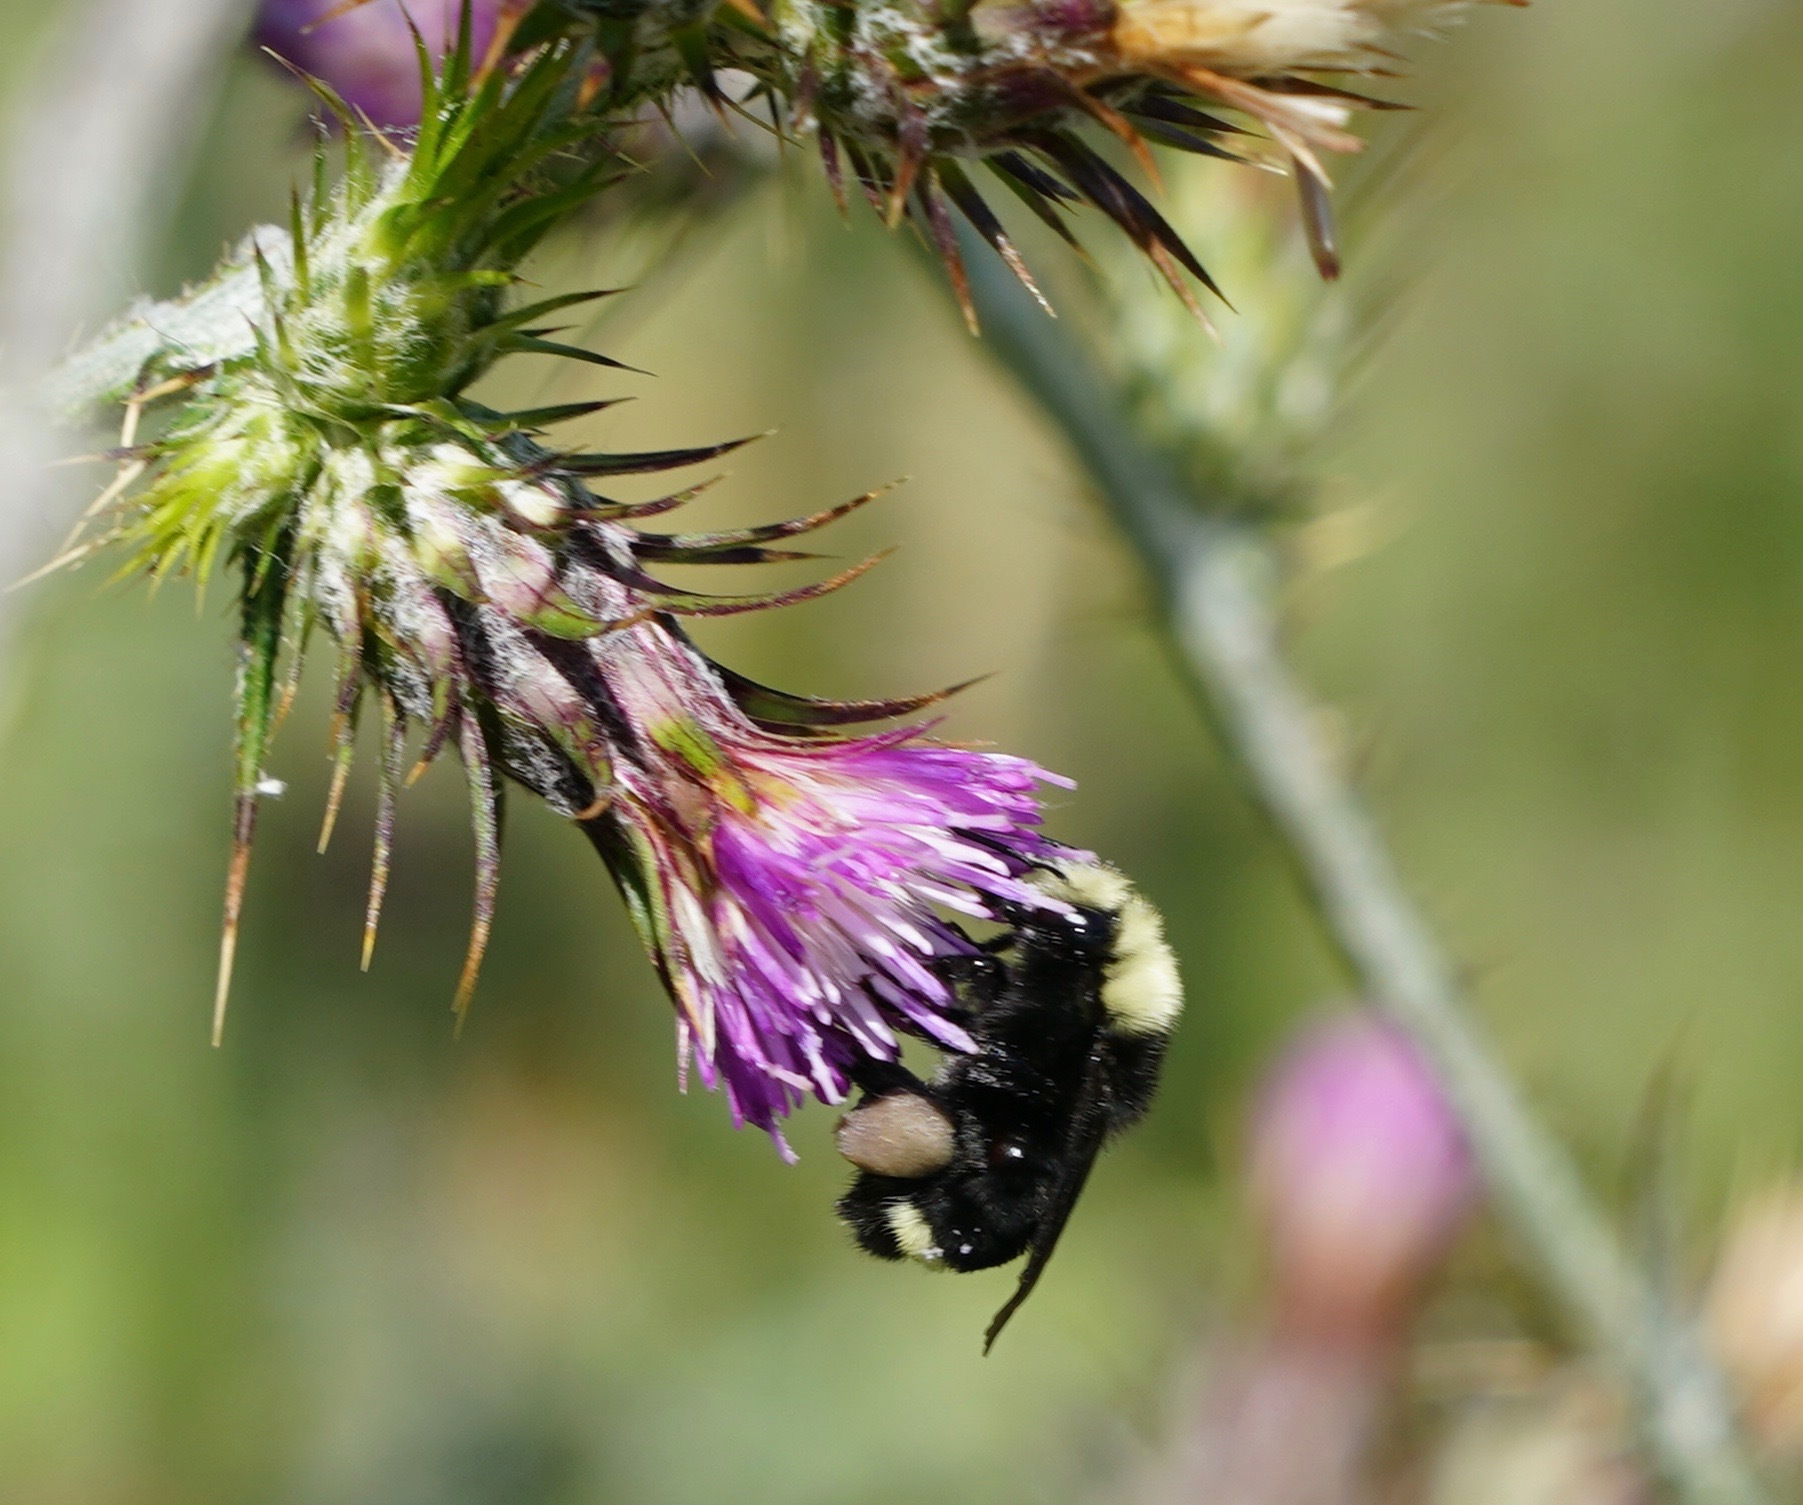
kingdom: Animalia
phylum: Arthropoda
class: Insecta
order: Hymenoptera
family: Apidae
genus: Bombus
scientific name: Bombus vosnesenskii
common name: Vosnesensky bumble bee
